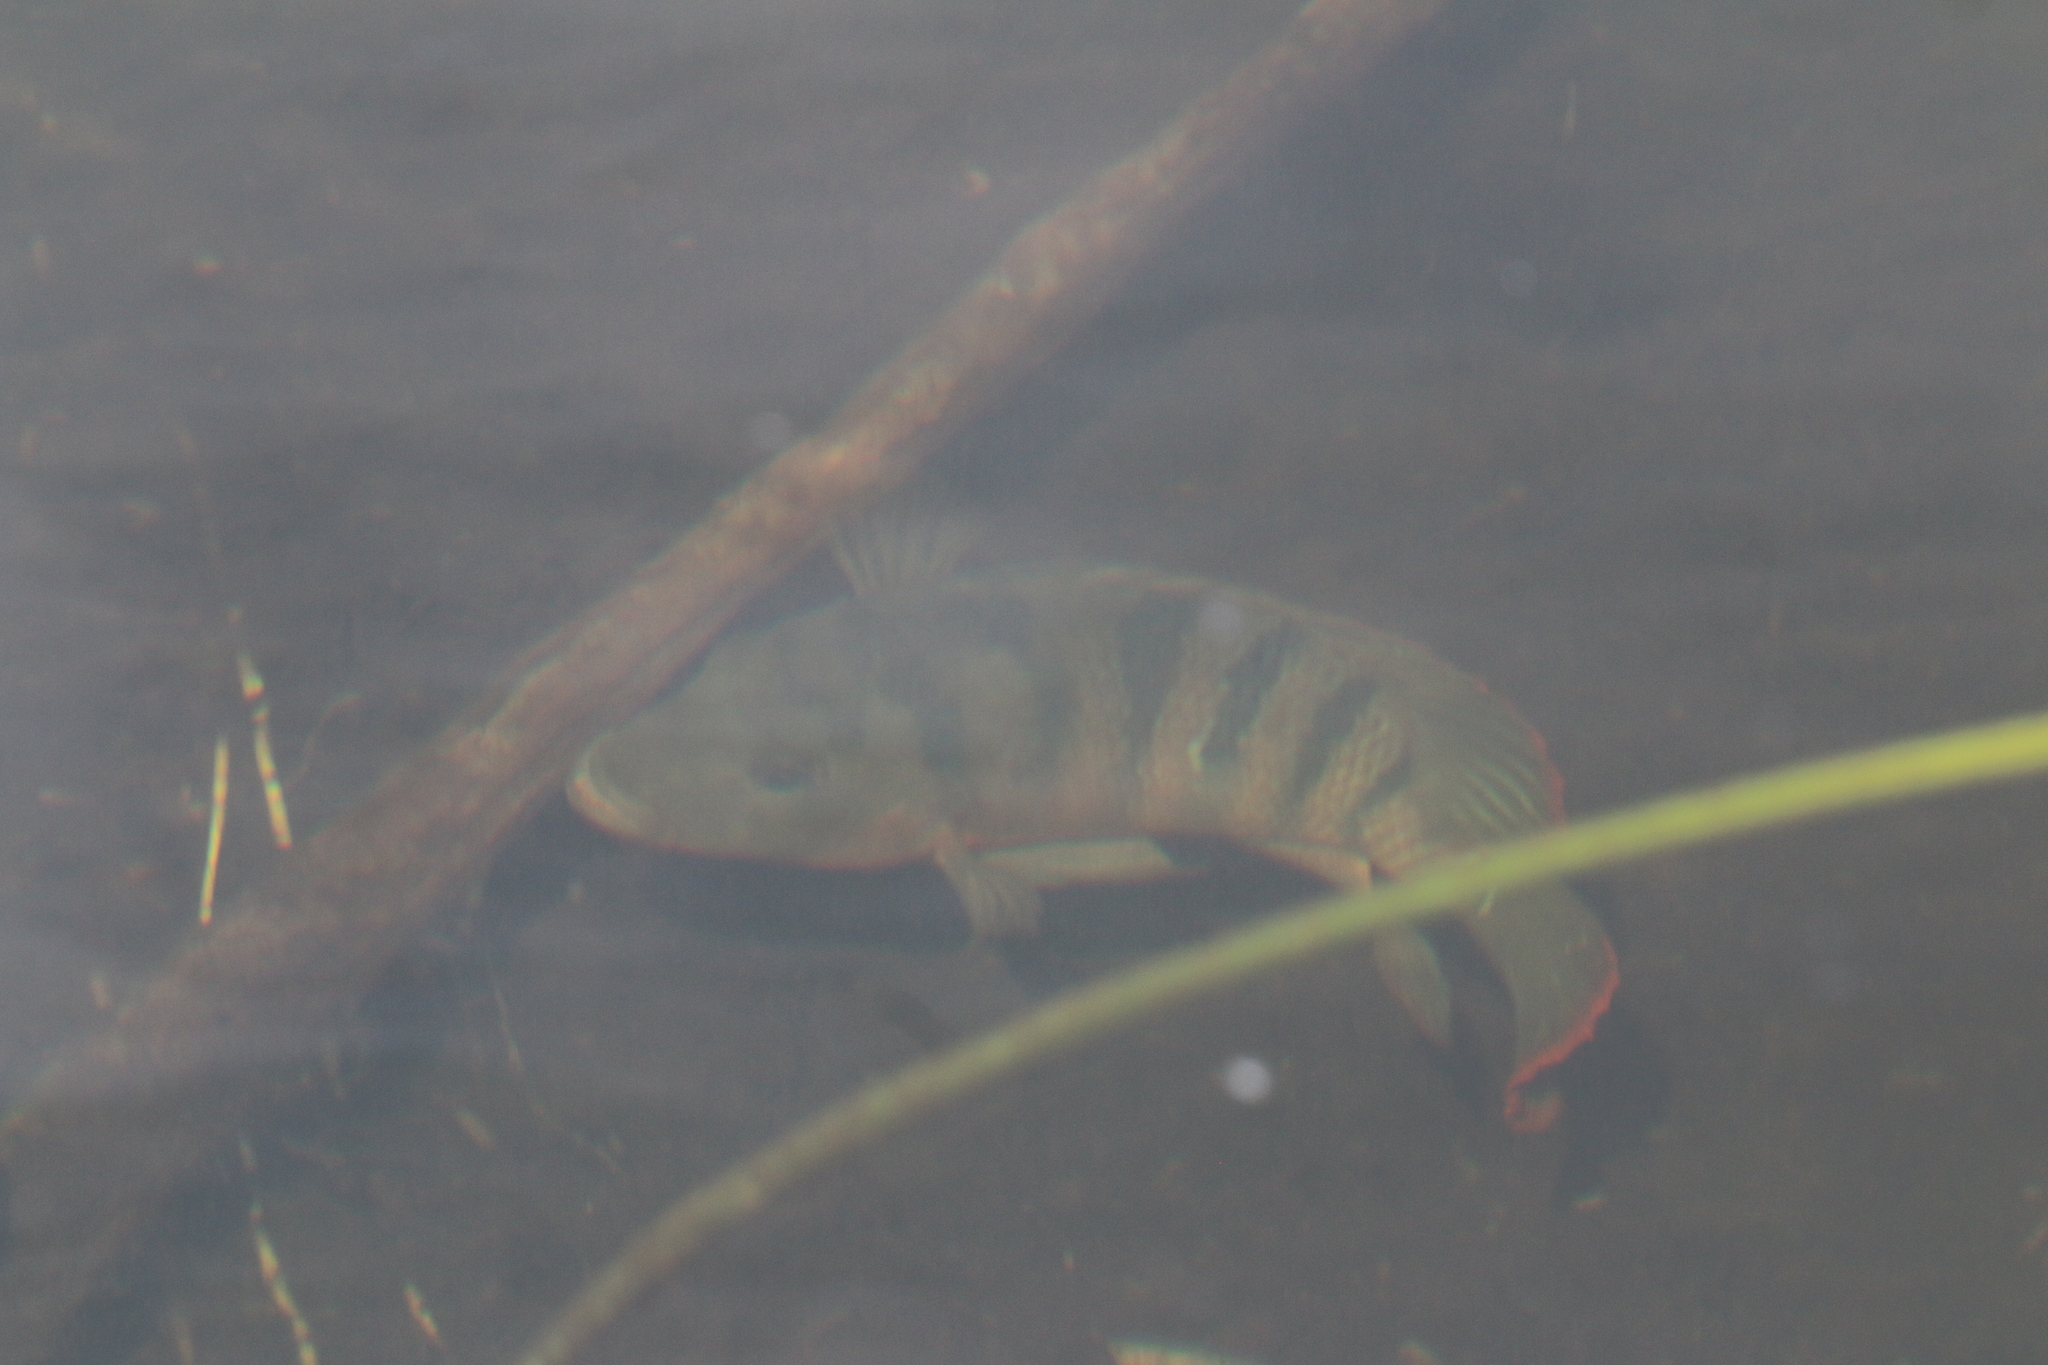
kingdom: Animalia
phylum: Chordata
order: Perciformes
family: Cichlidae
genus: Mayaheros
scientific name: Mayaheros urophthalmus
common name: Mayan cichlid
